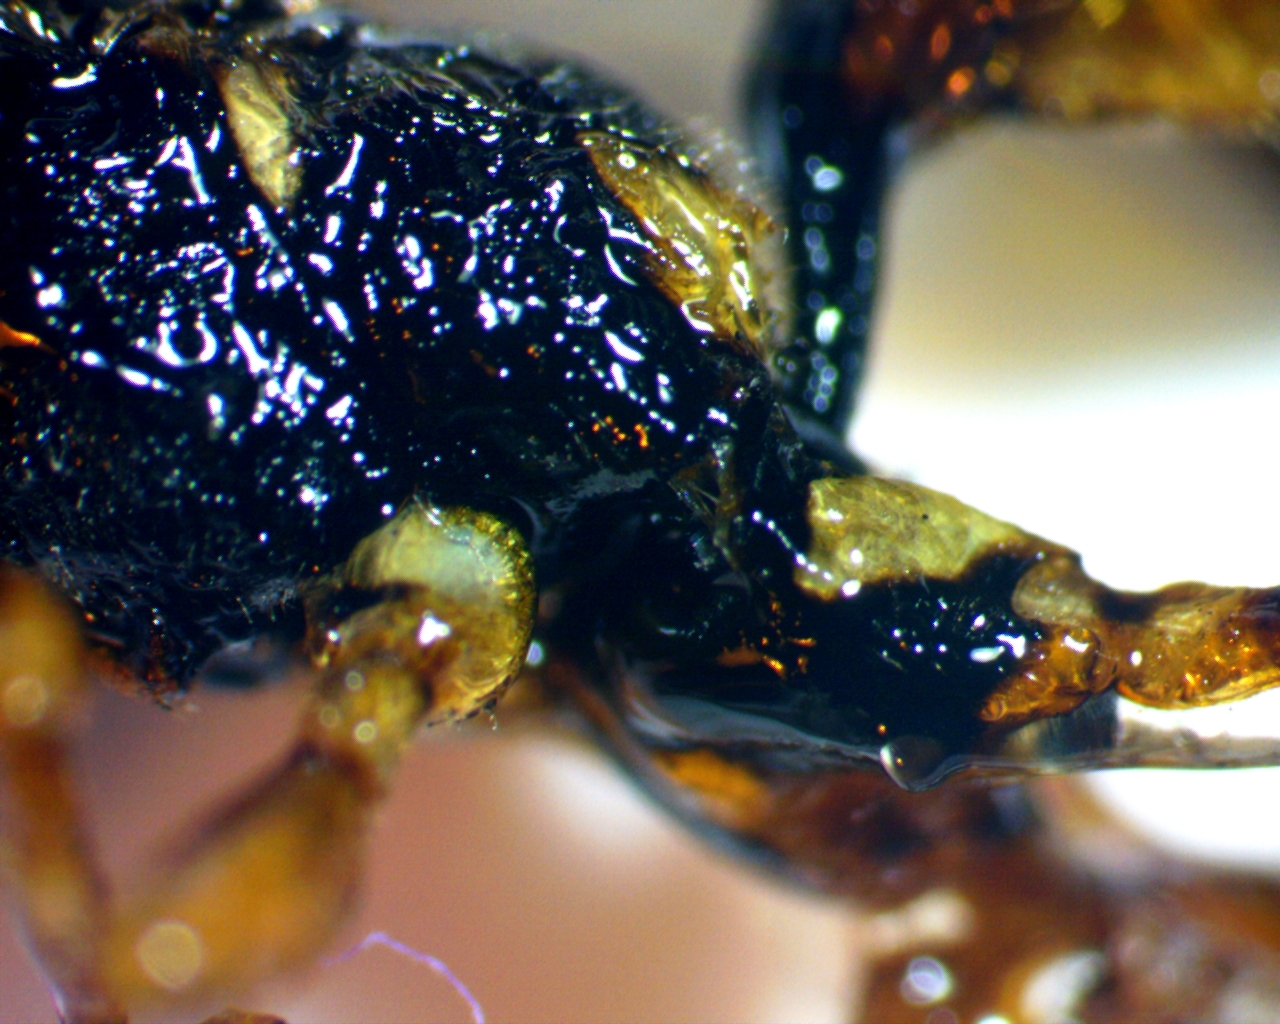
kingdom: Animalia
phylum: Arthropoda
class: Insecta
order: Hymenoptera
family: Ichneumonidae
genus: Cratichneumon
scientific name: Cratichneumon w-album
